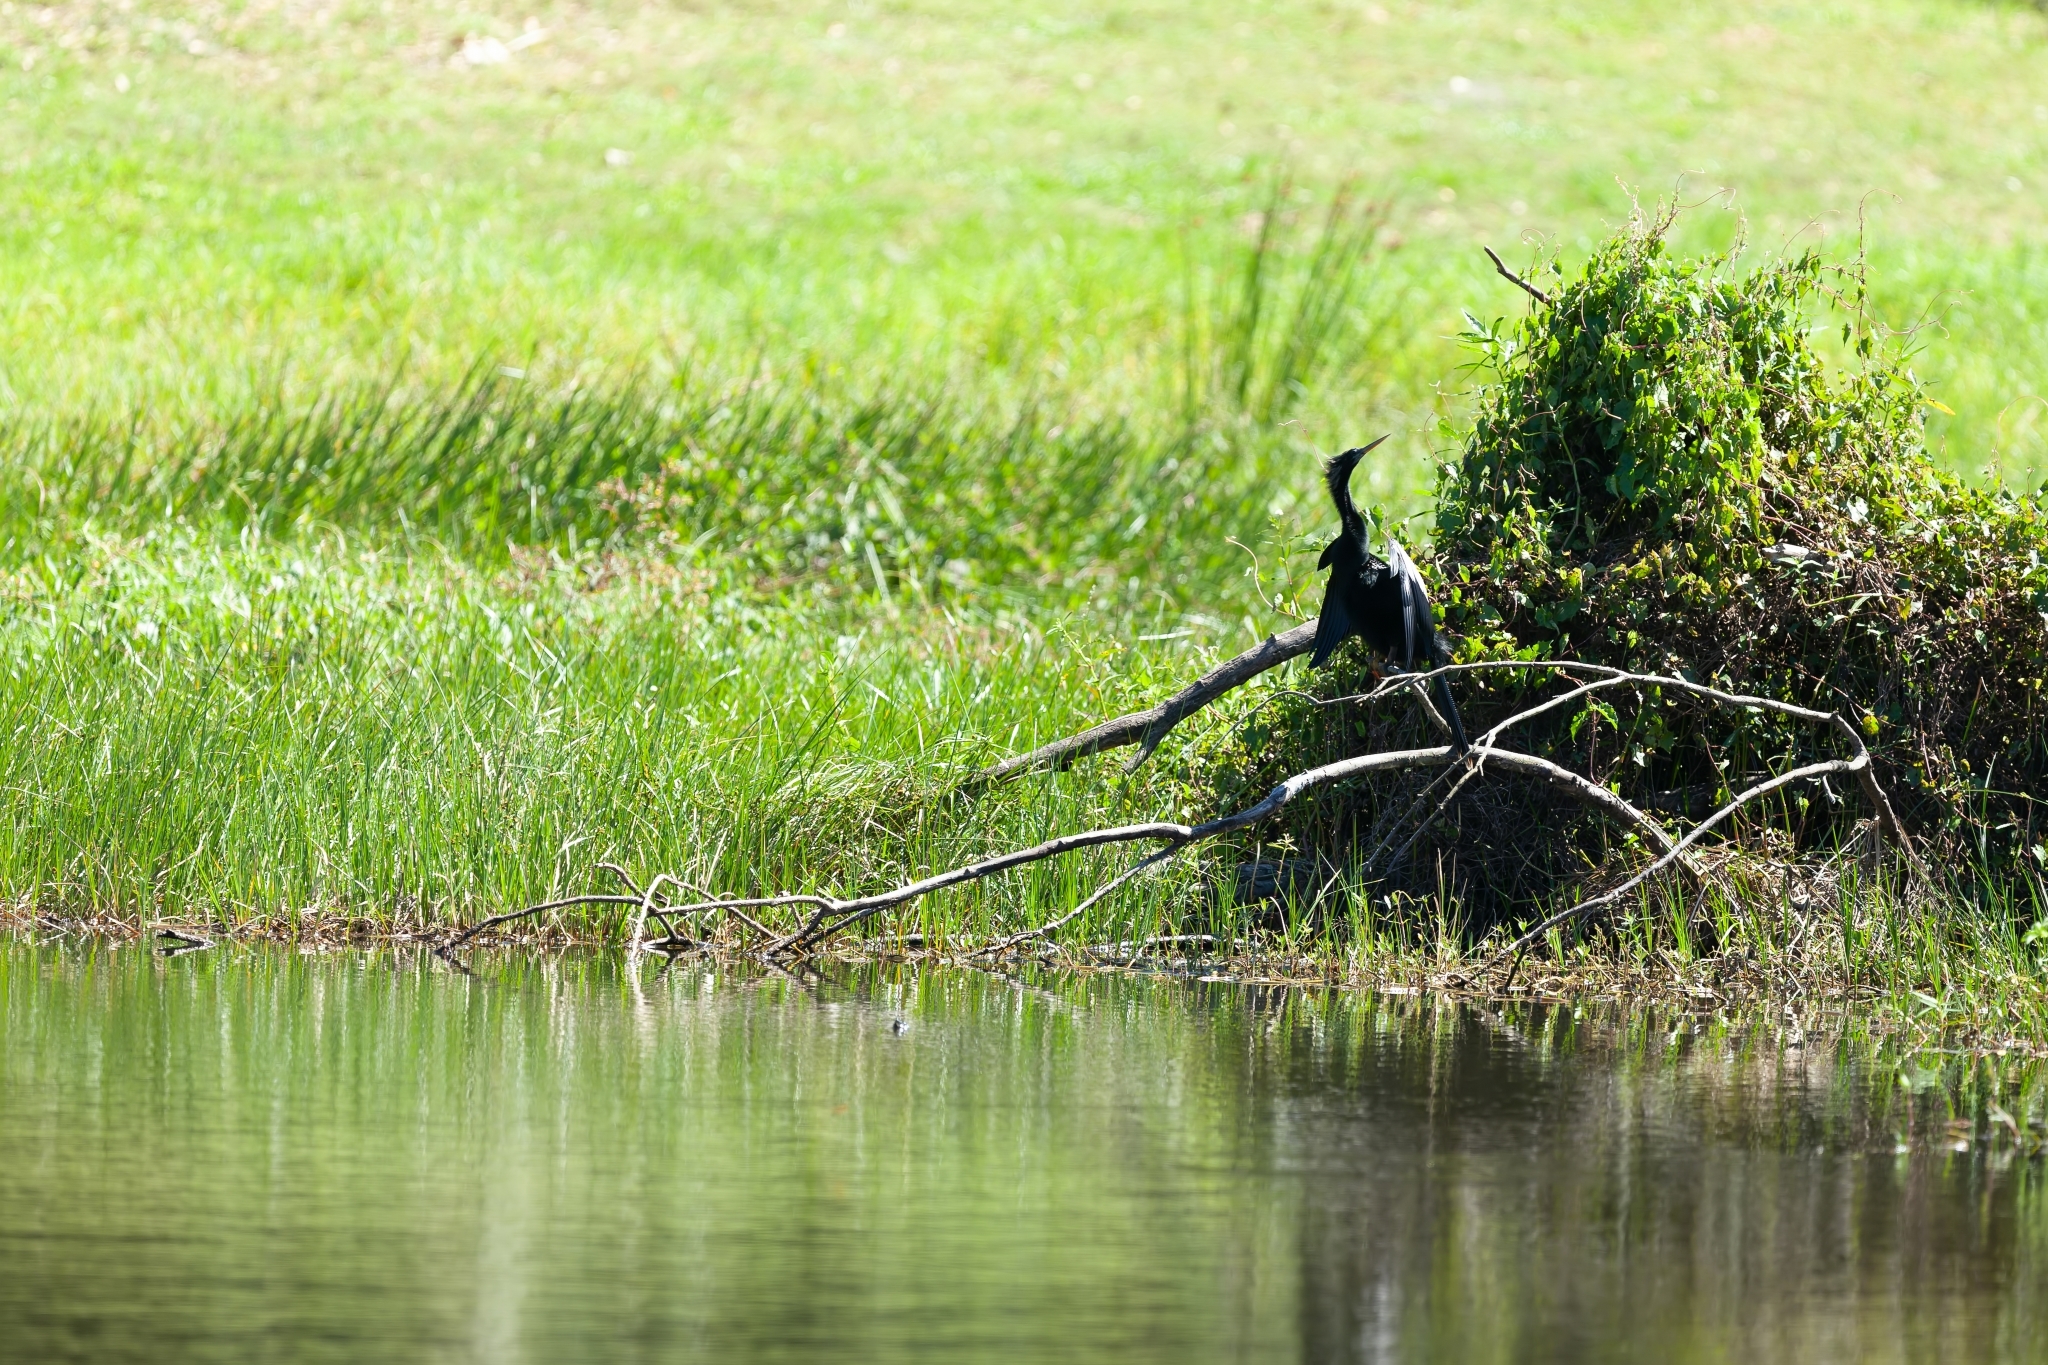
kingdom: Animalia
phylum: Chordata
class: Aves
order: Suliformes
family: Anhingidae
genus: Anhinga
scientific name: Anhinga anhinga
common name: Anhinga
